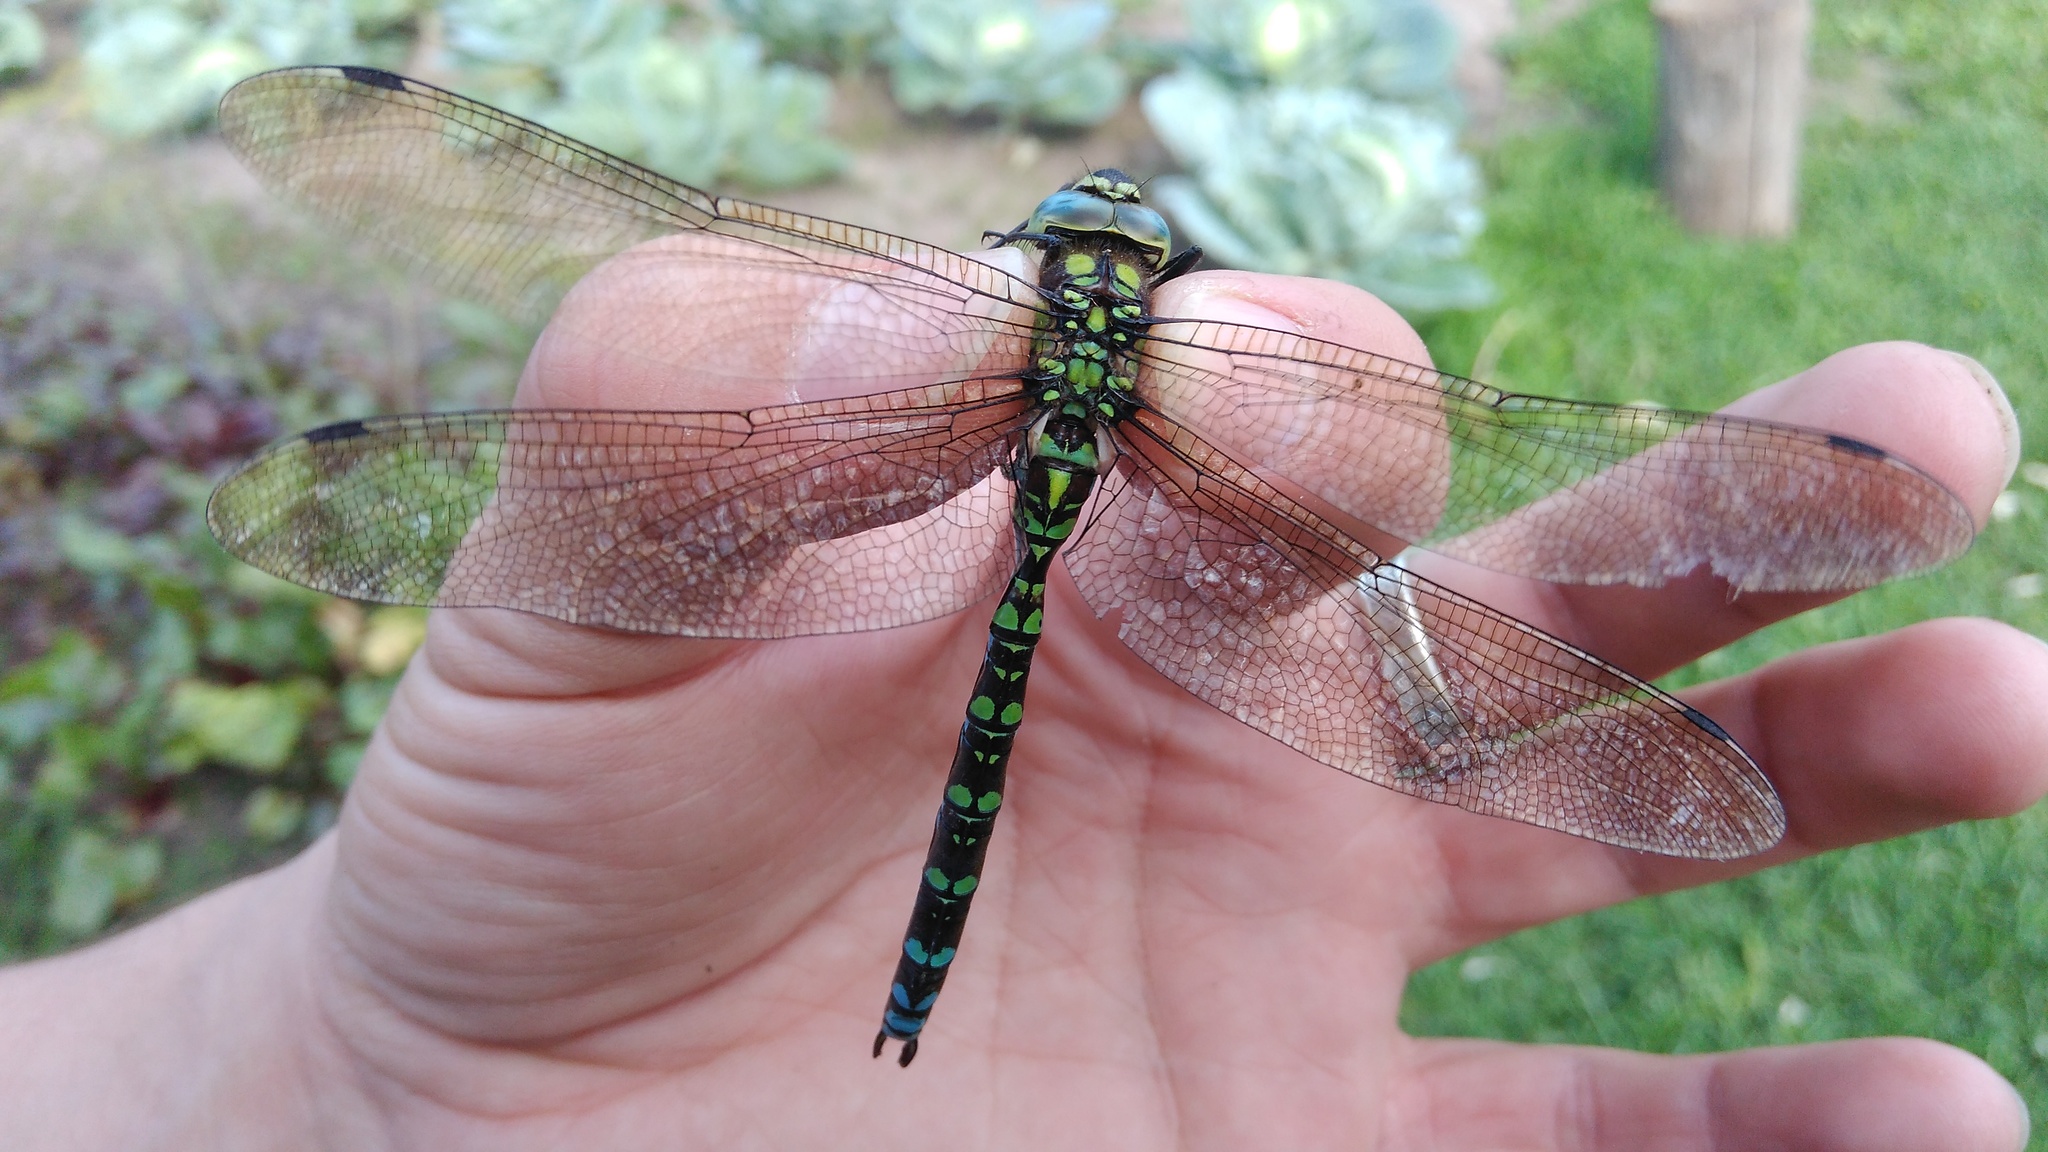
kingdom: Animalia
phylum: Arthropoda
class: Insecta
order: Odonata
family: Aeshnidae
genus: Aeshna
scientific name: Aeshna cyanea
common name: Southern hawker
